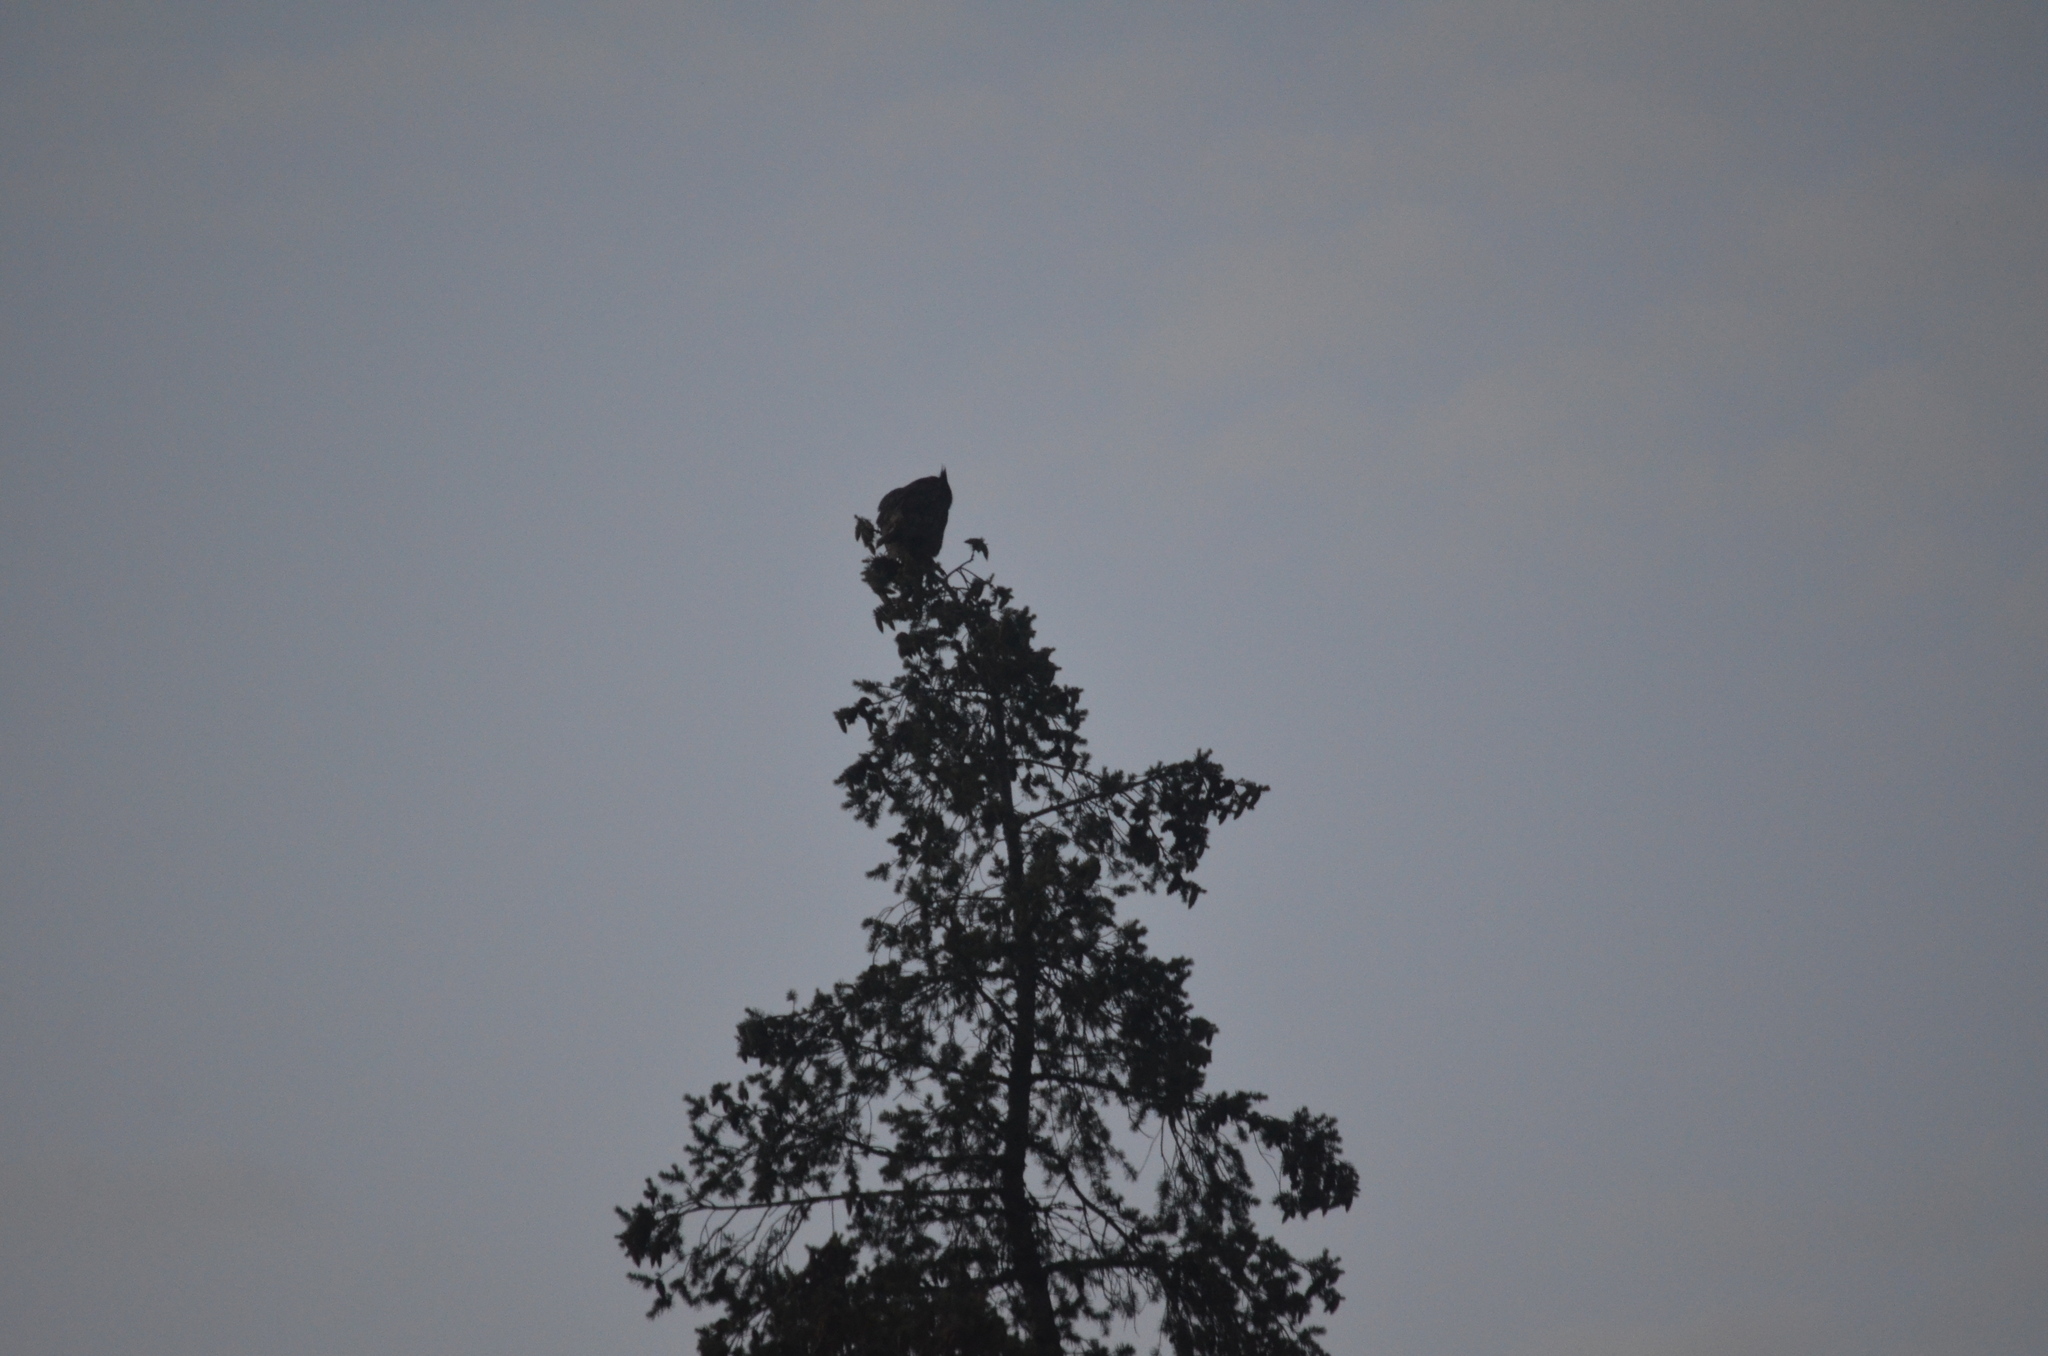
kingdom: Animalia
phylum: Chordata
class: Aves
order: Strigiformes
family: Strigidae
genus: Bubo
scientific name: Bubo virginianus
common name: Great horned owl
